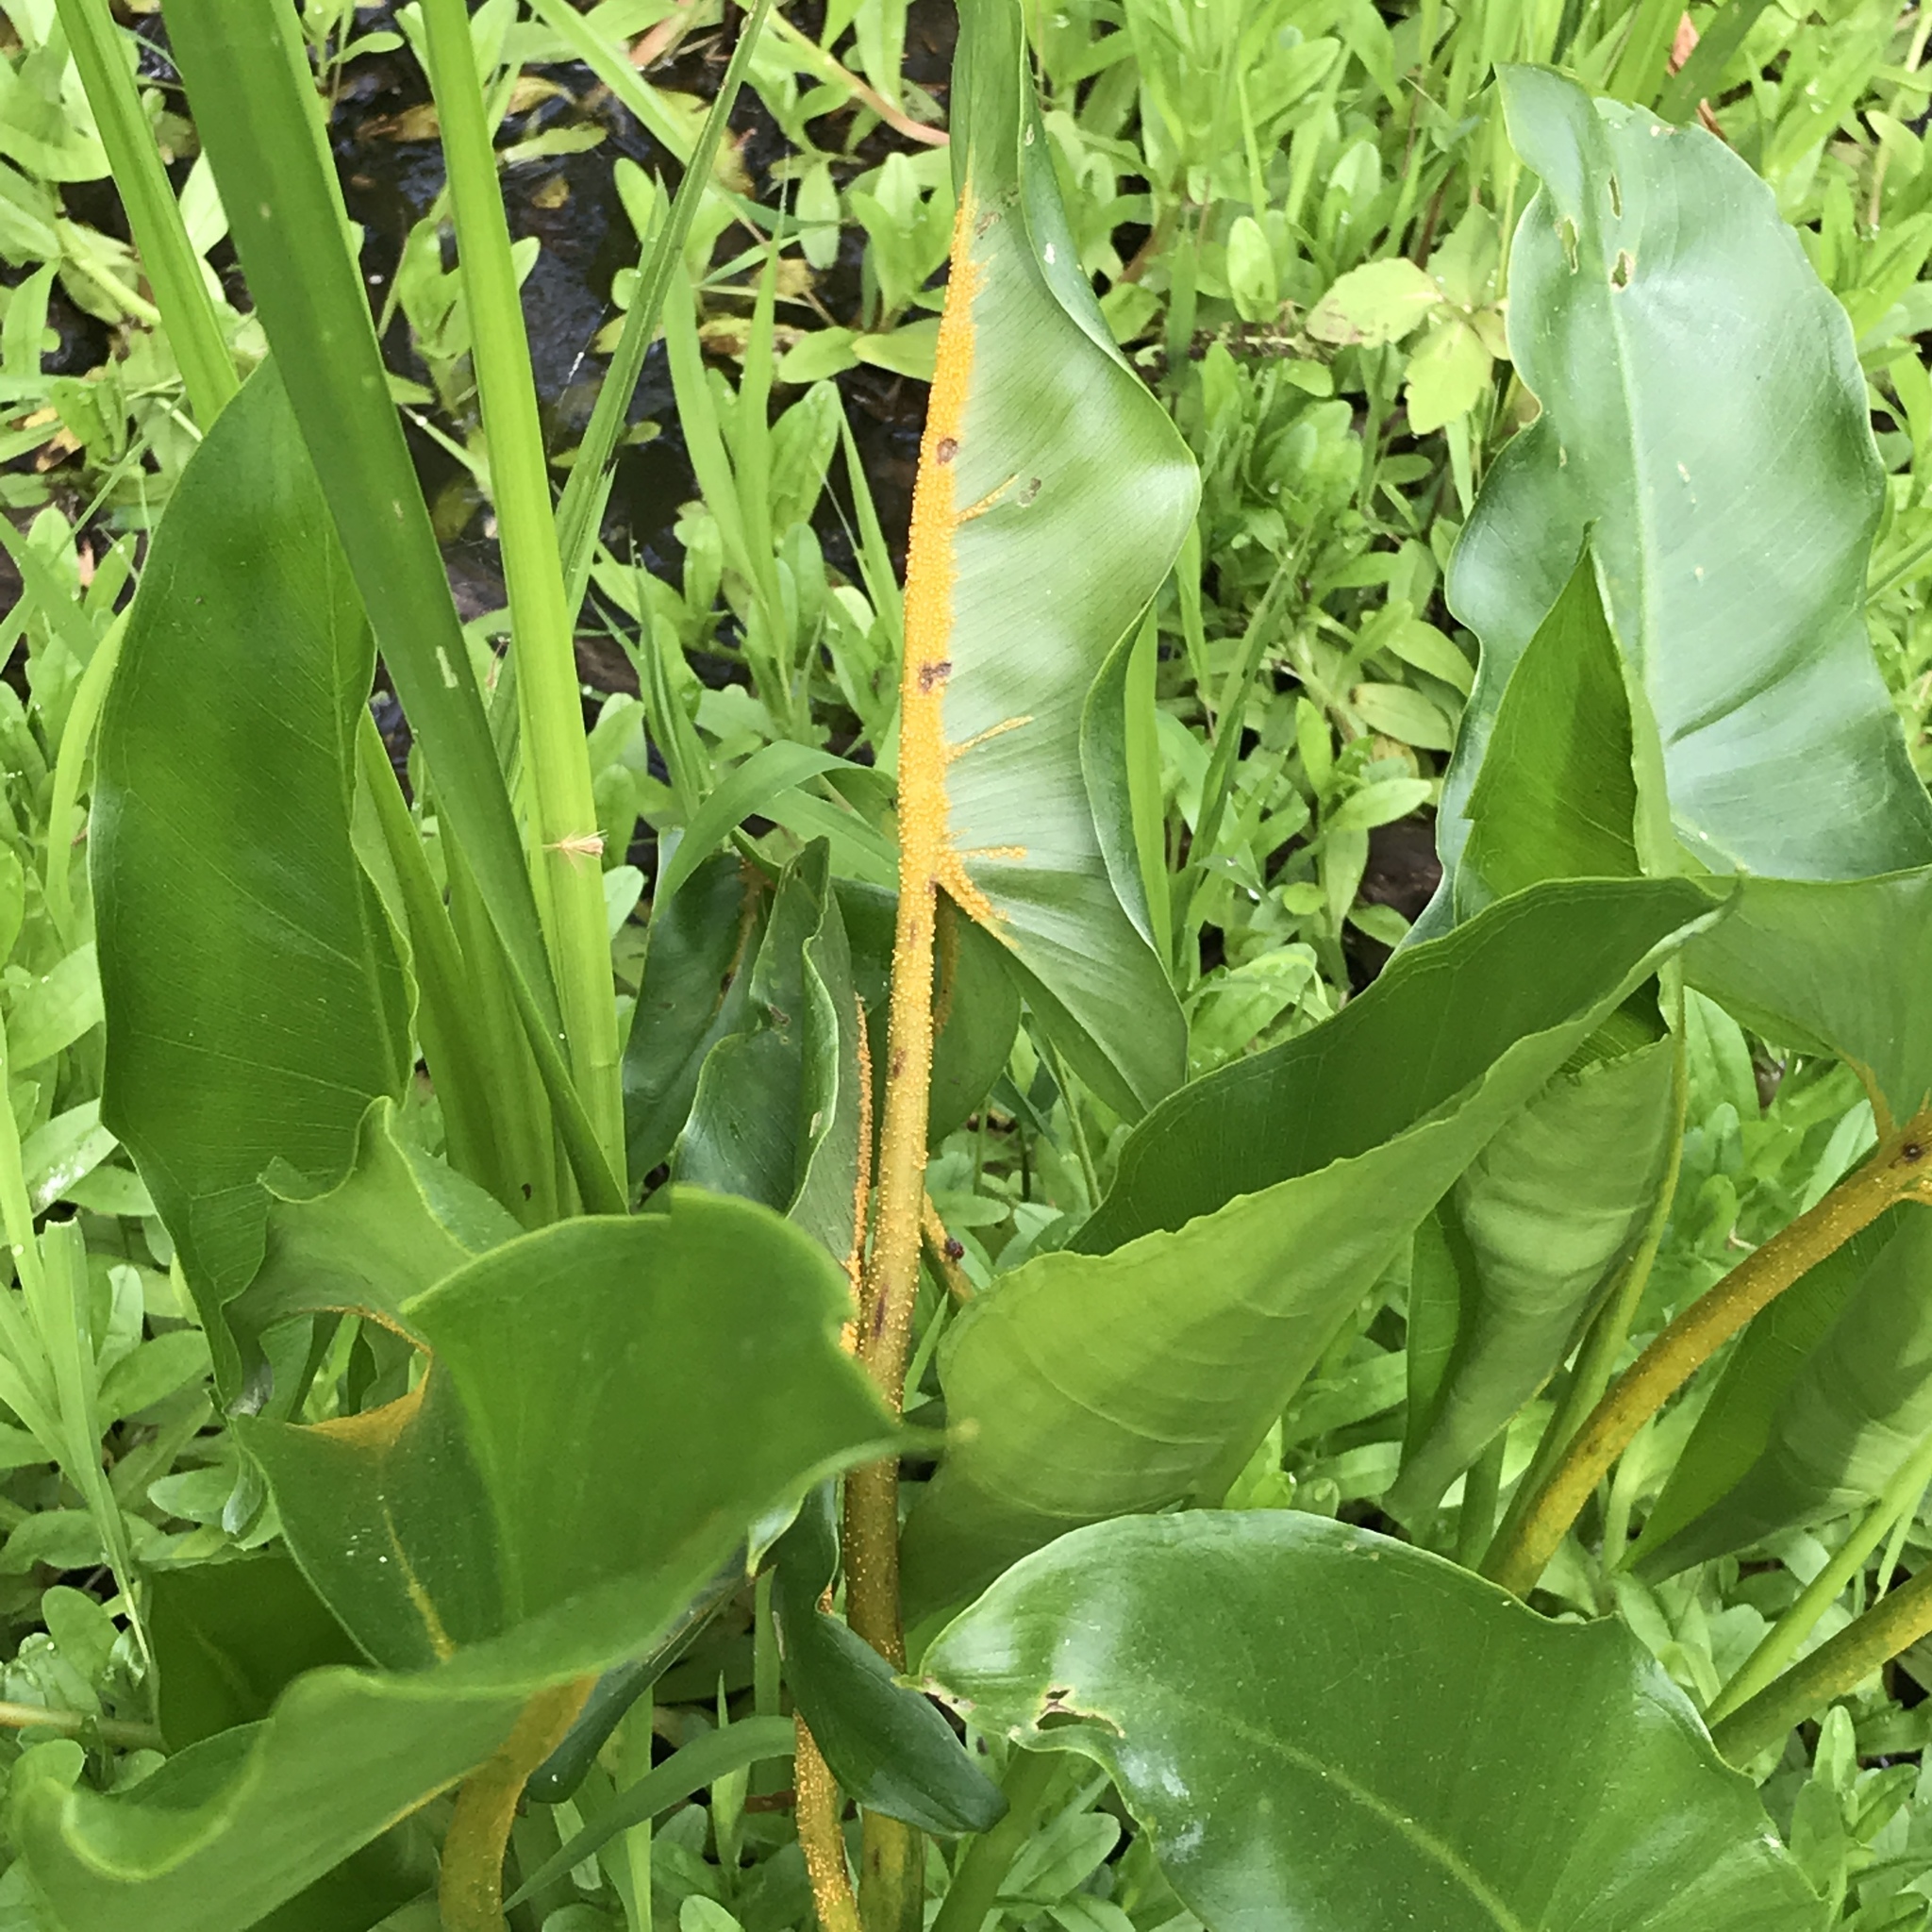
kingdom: Fungi
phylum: Basidiomycota
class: Pucciniomycetes
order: Pucciniales
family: Pucciniaceae
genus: Uromyces
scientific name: Uromyces caladii
